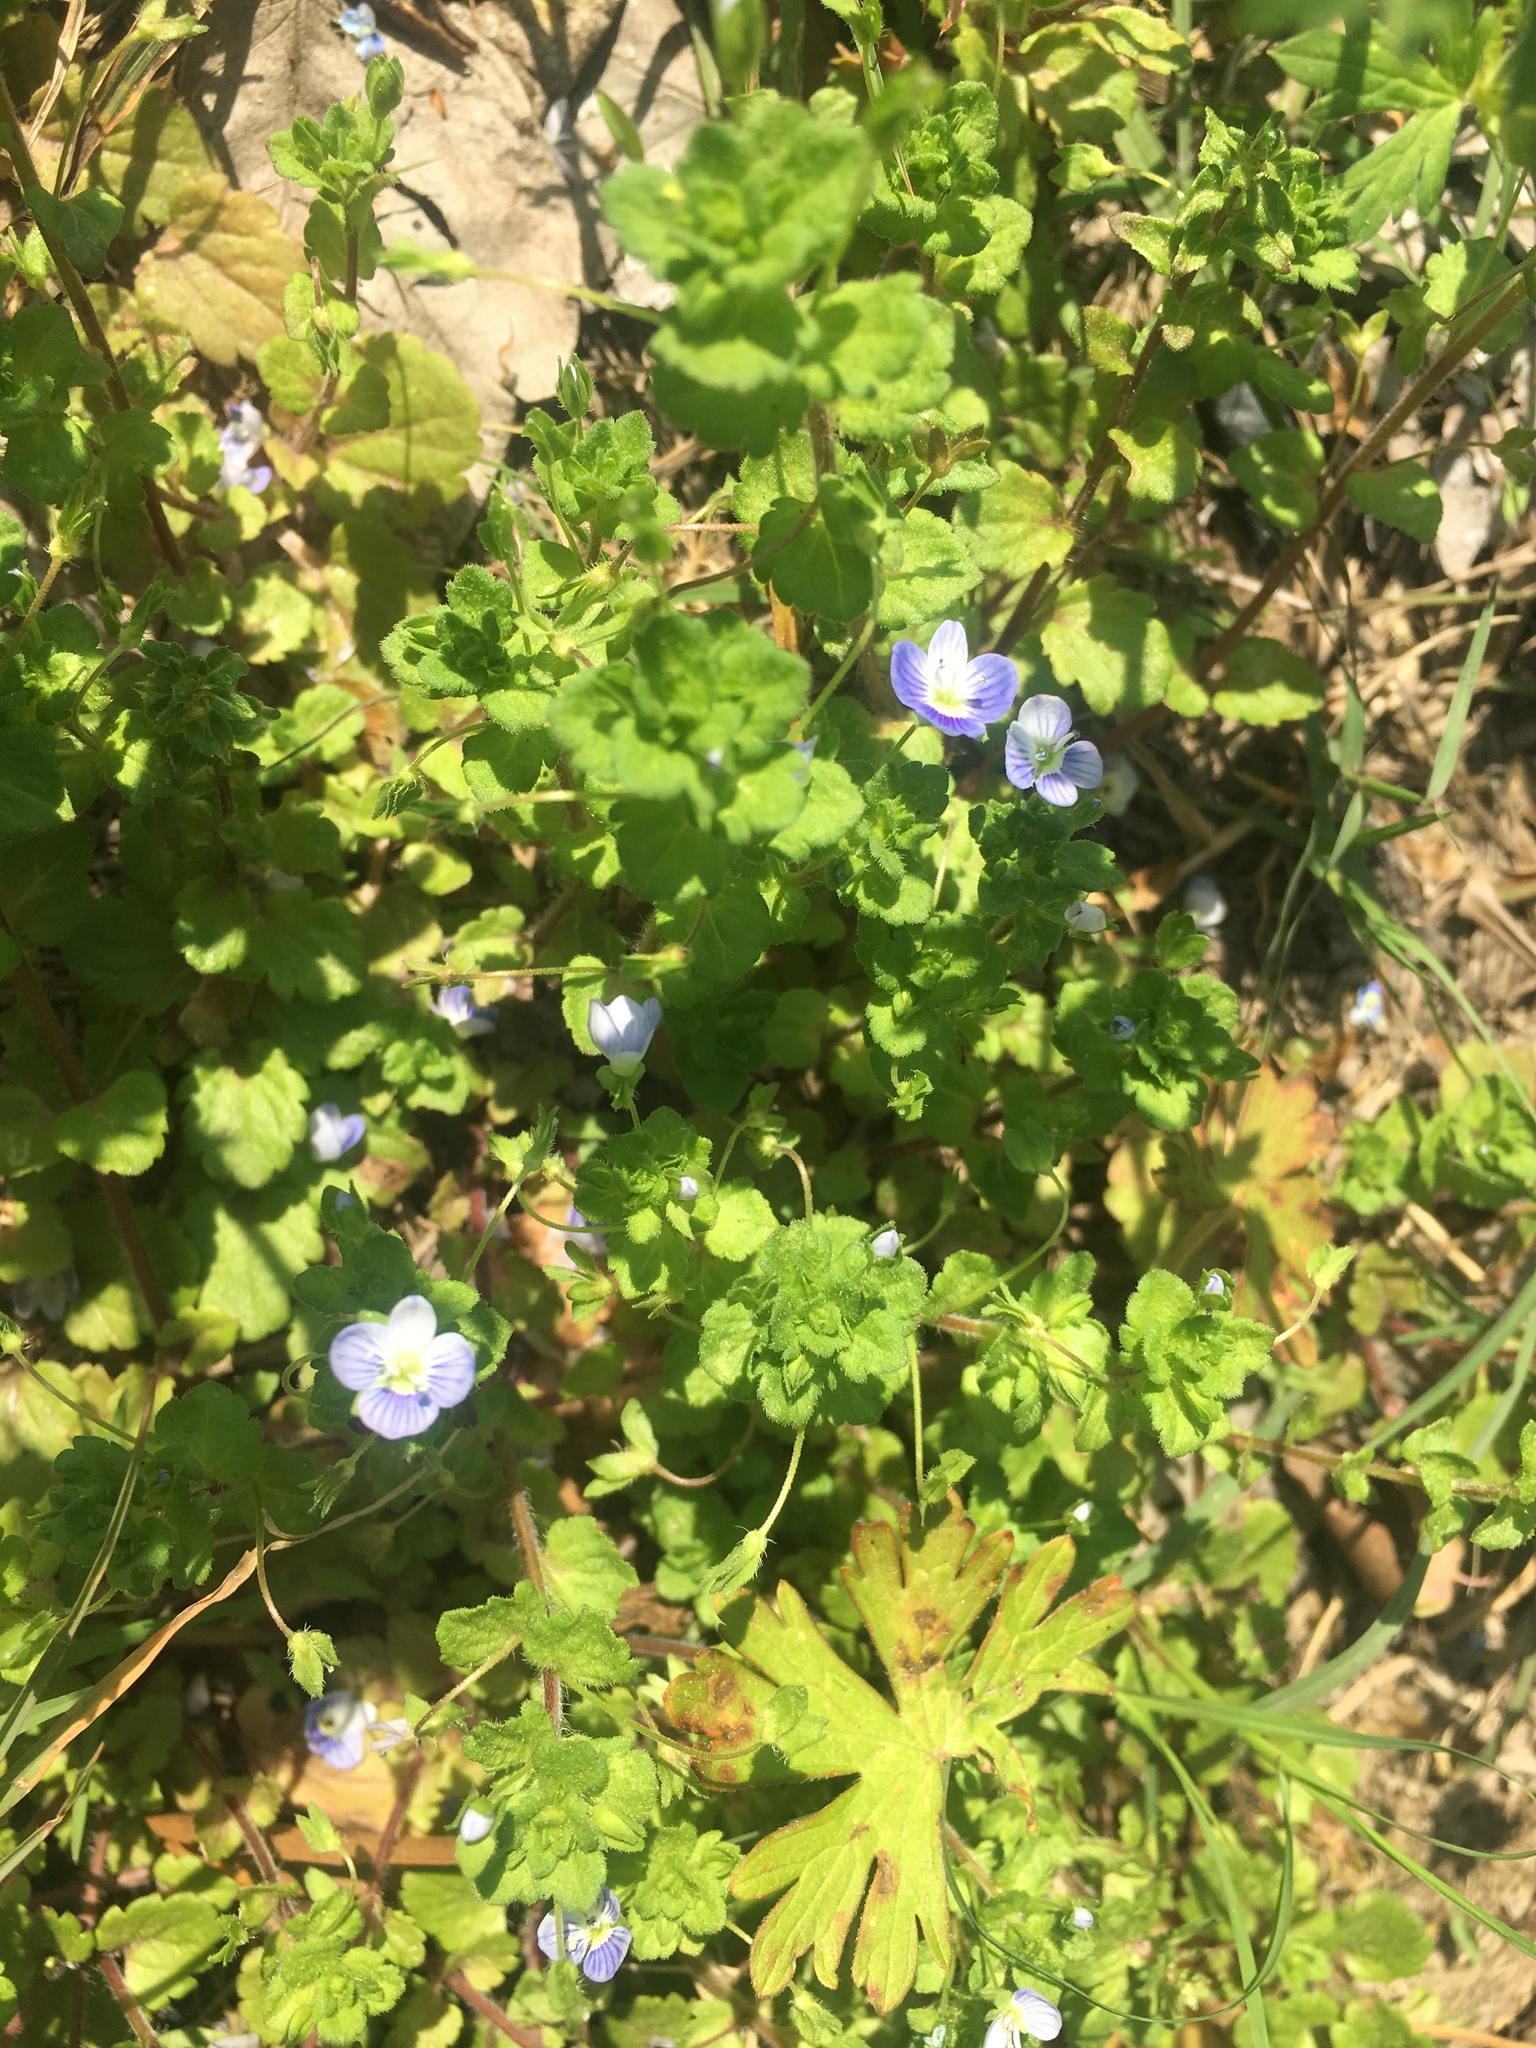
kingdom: Plantae
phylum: Tracheophyta
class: Magnoliopsida
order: Lamiales
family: Plantaginaceae
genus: Veronica
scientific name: Veronica persica
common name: Common field-speedwell
